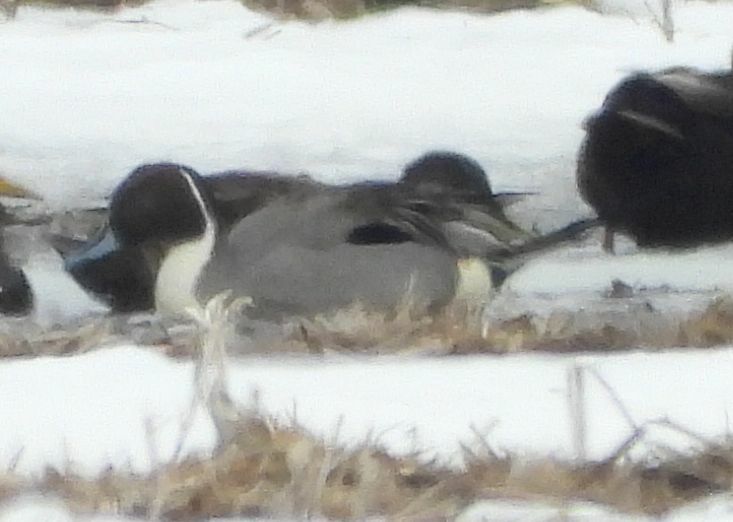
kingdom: Animalia
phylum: Chordata
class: Aves
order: Anseriformes
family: Anatidae
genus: Anas
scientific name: Anas acuta
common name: Northern pintail
